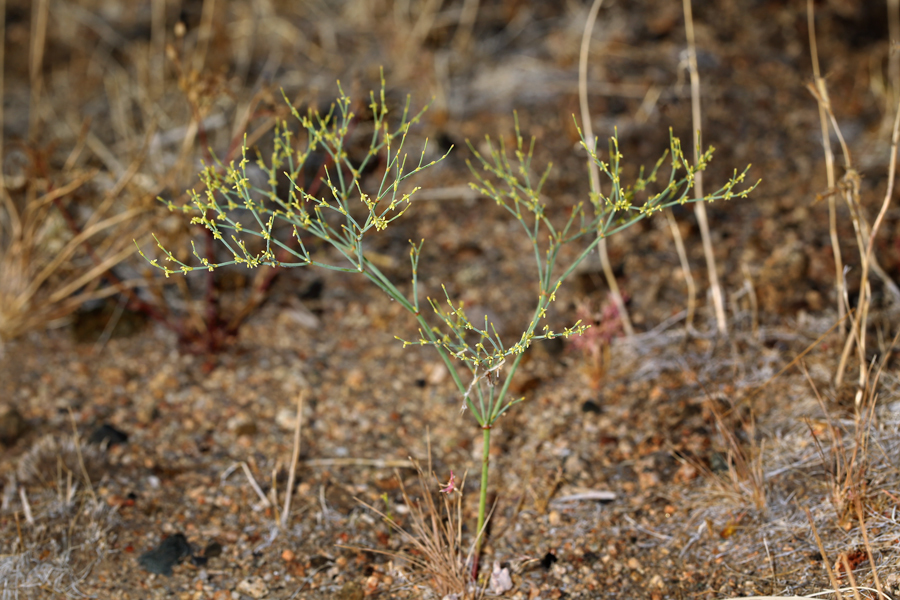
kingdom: Plantae
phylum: Tracheophyta
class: Magnoliopsida
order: Caryophyllales
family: Polygonaceae
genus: Eriogonum
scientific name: Eriogonum brachyanthum
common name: Short-flower wild buckwheat
